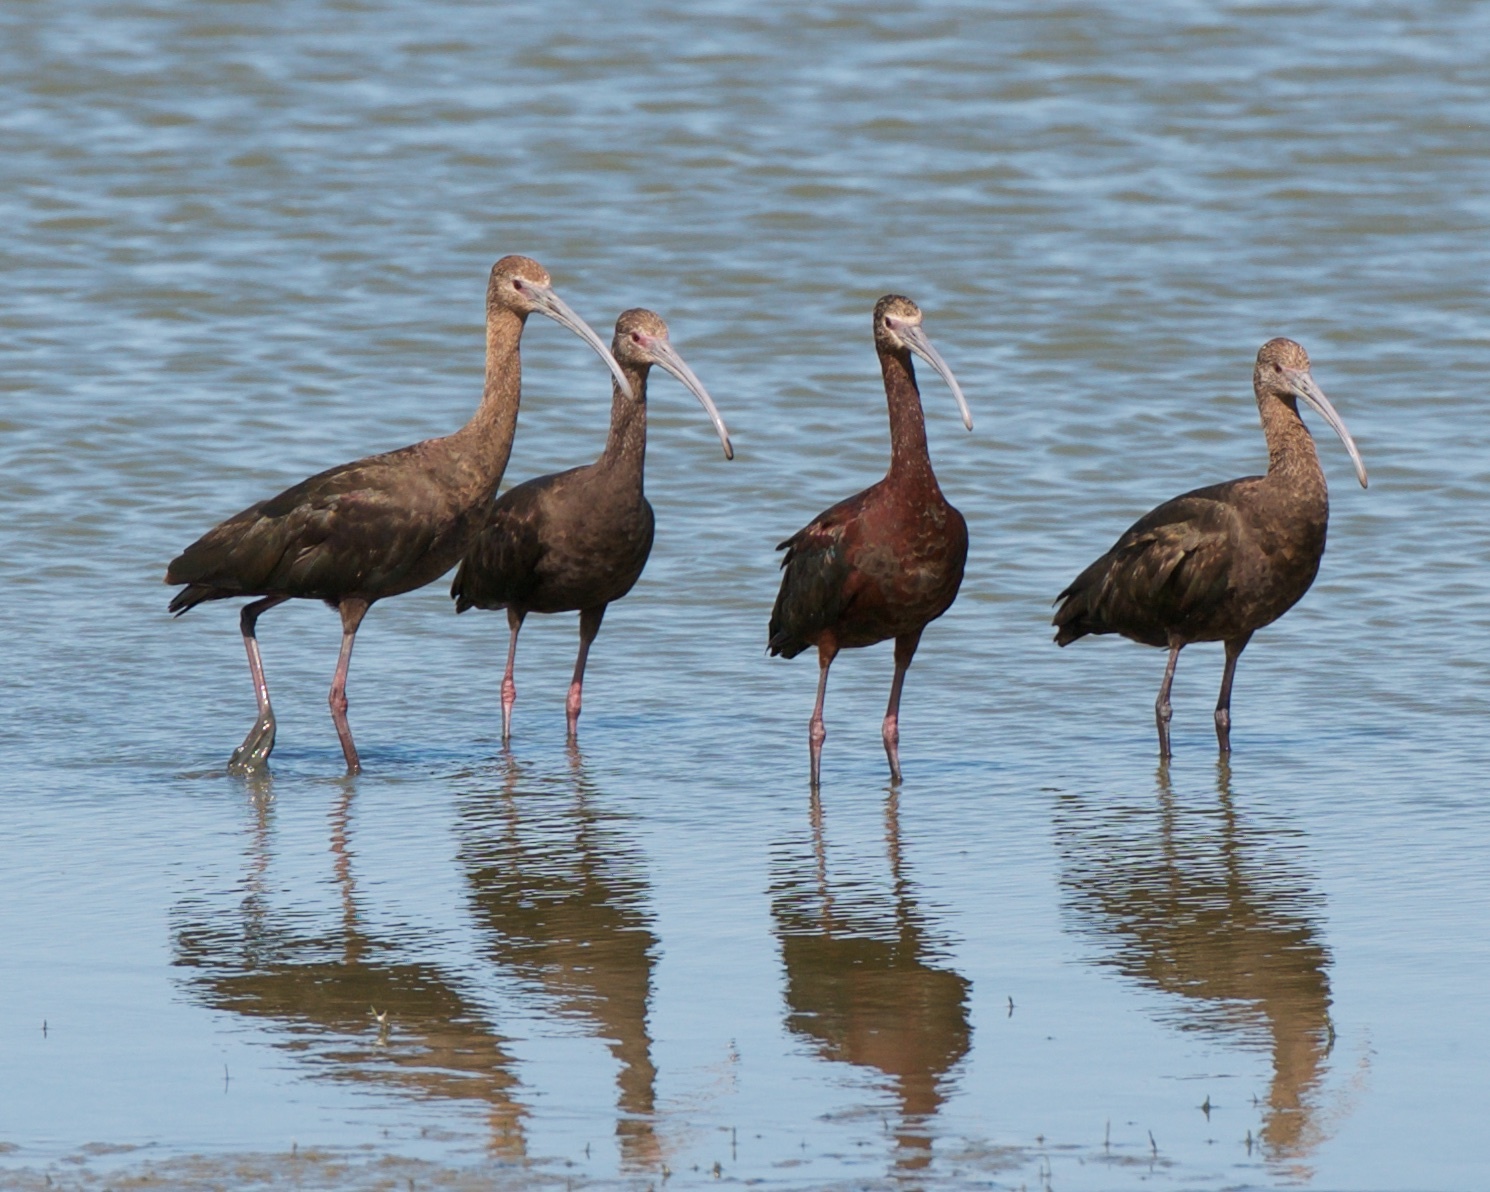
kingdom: Animalia
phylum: Chordata
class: Aves
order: Pelecaniformes
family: Threskiornithidae
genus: Plegadis
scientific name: Plegadis chihi
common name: White-faced ibis
